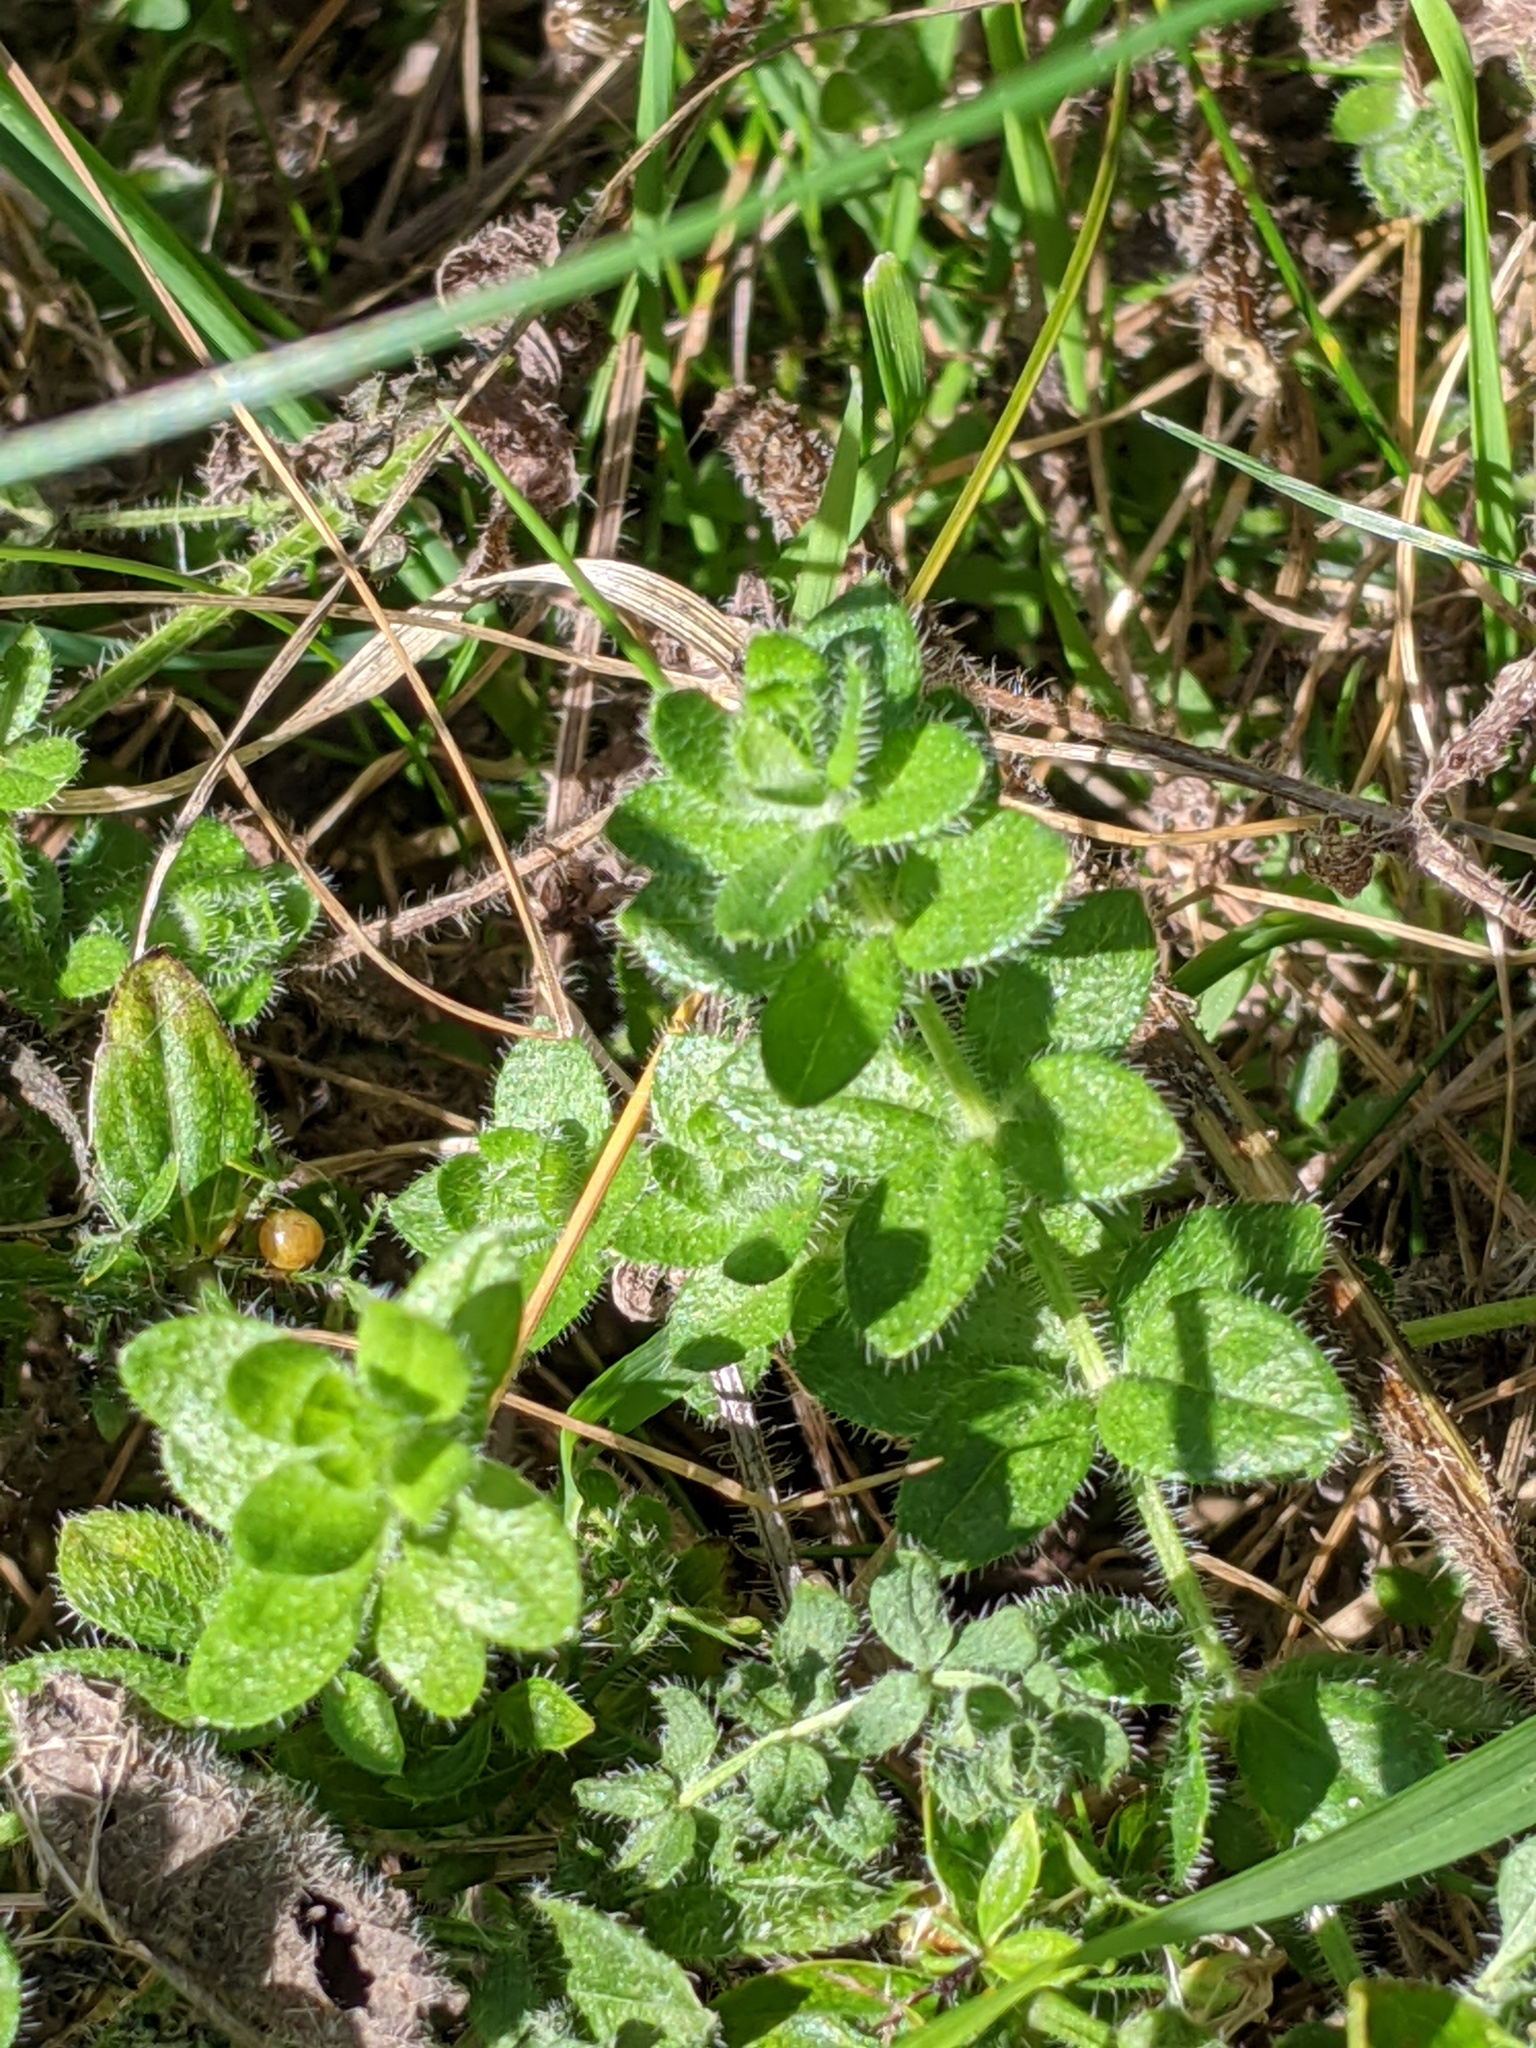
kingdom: Plantae
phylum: Tracheophyta
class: Magnoliopsida
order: Gentianales
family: Rubiaceae
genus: Cruciata
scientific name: Cruciata laevipes
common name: Crosswort
